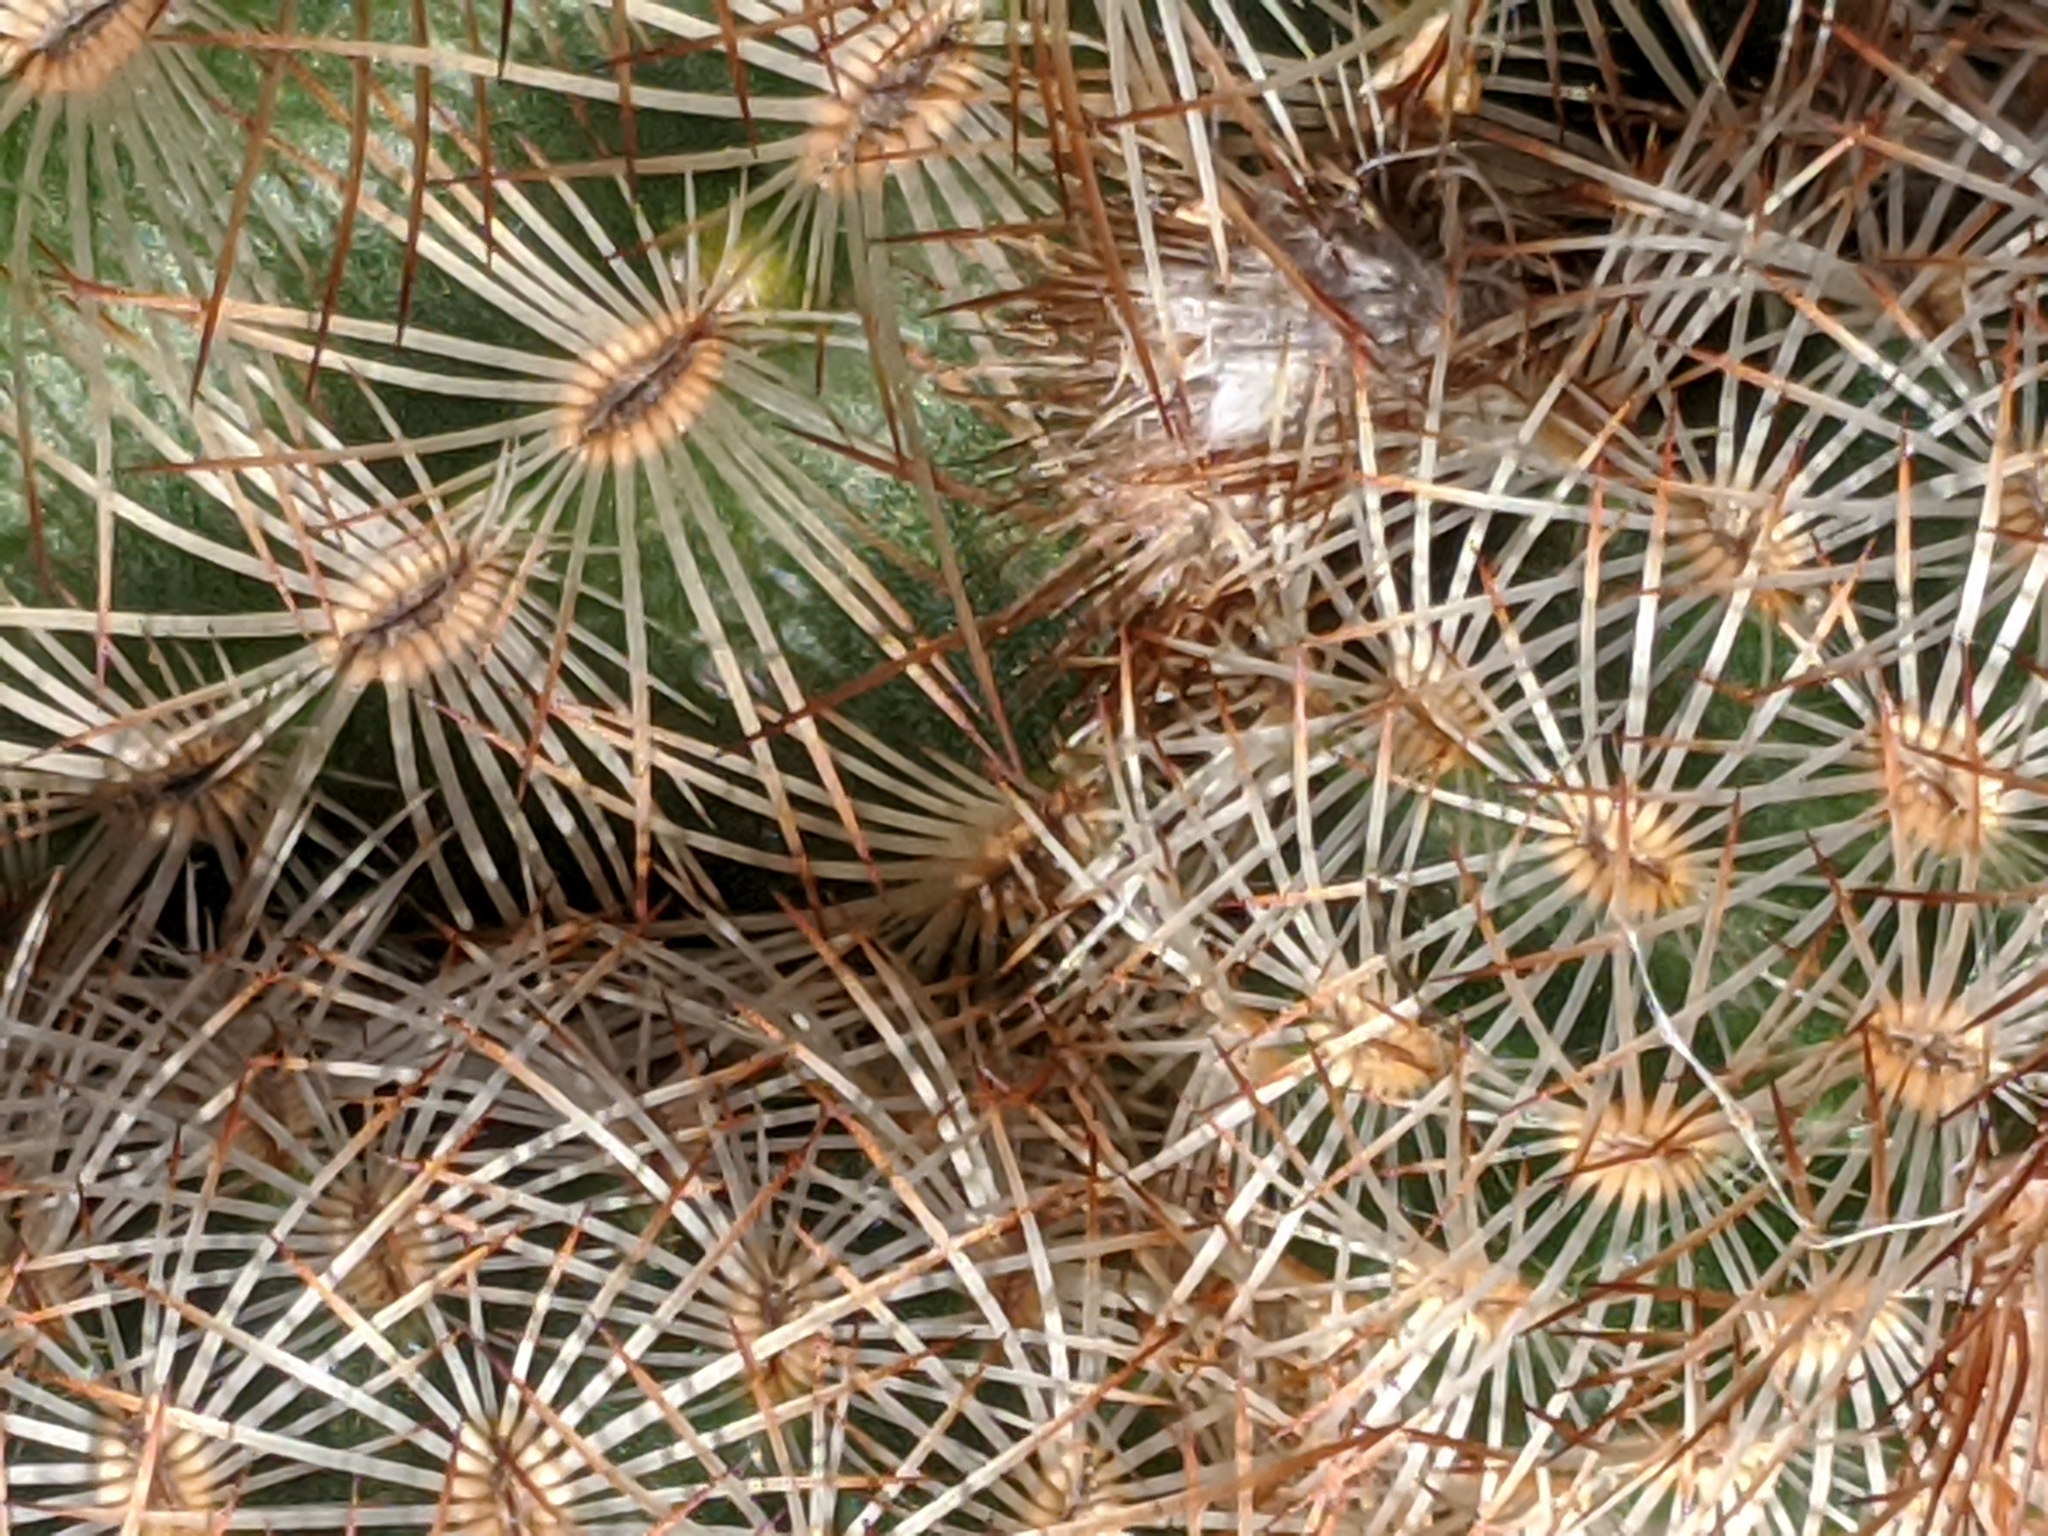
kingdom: Plantae
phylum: Tracheophyta
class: Magnoliopsida
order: Caryophyllales
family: Cactaceae
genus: Echinocereus
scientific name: Echinocereus reichenbachii
